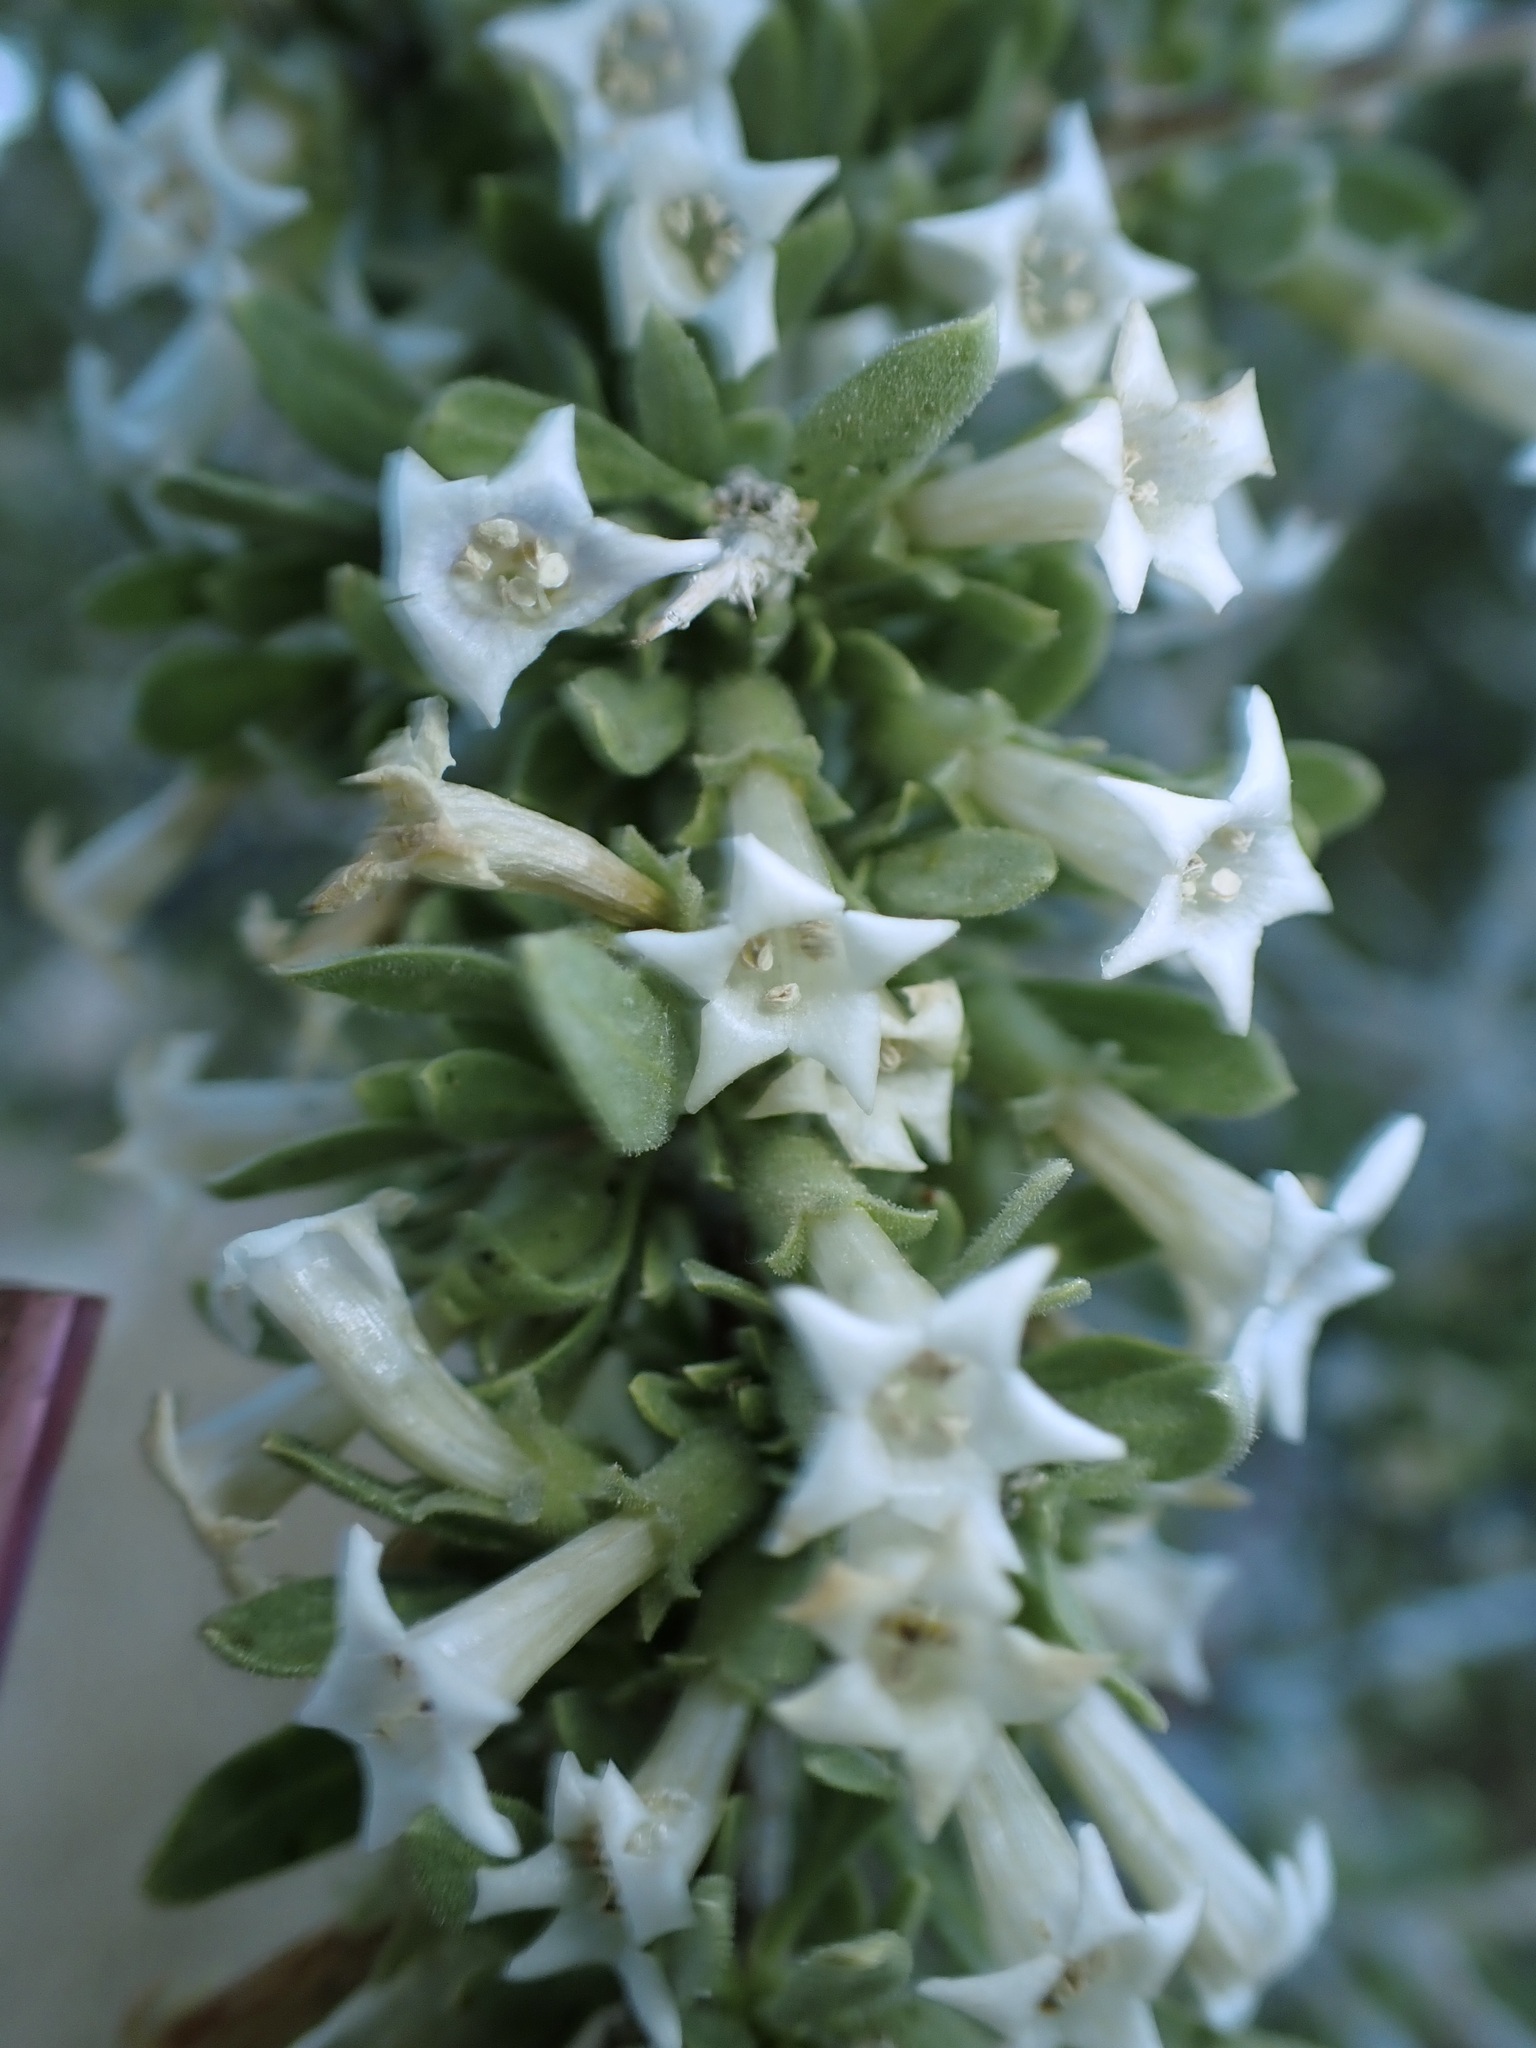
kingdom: Plantae
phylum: Tracheophyta
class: Magnoliopsida
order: Solanales
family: Solanaceae
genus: Lycium
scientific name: Lycium cooperi
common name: Peachthorn
